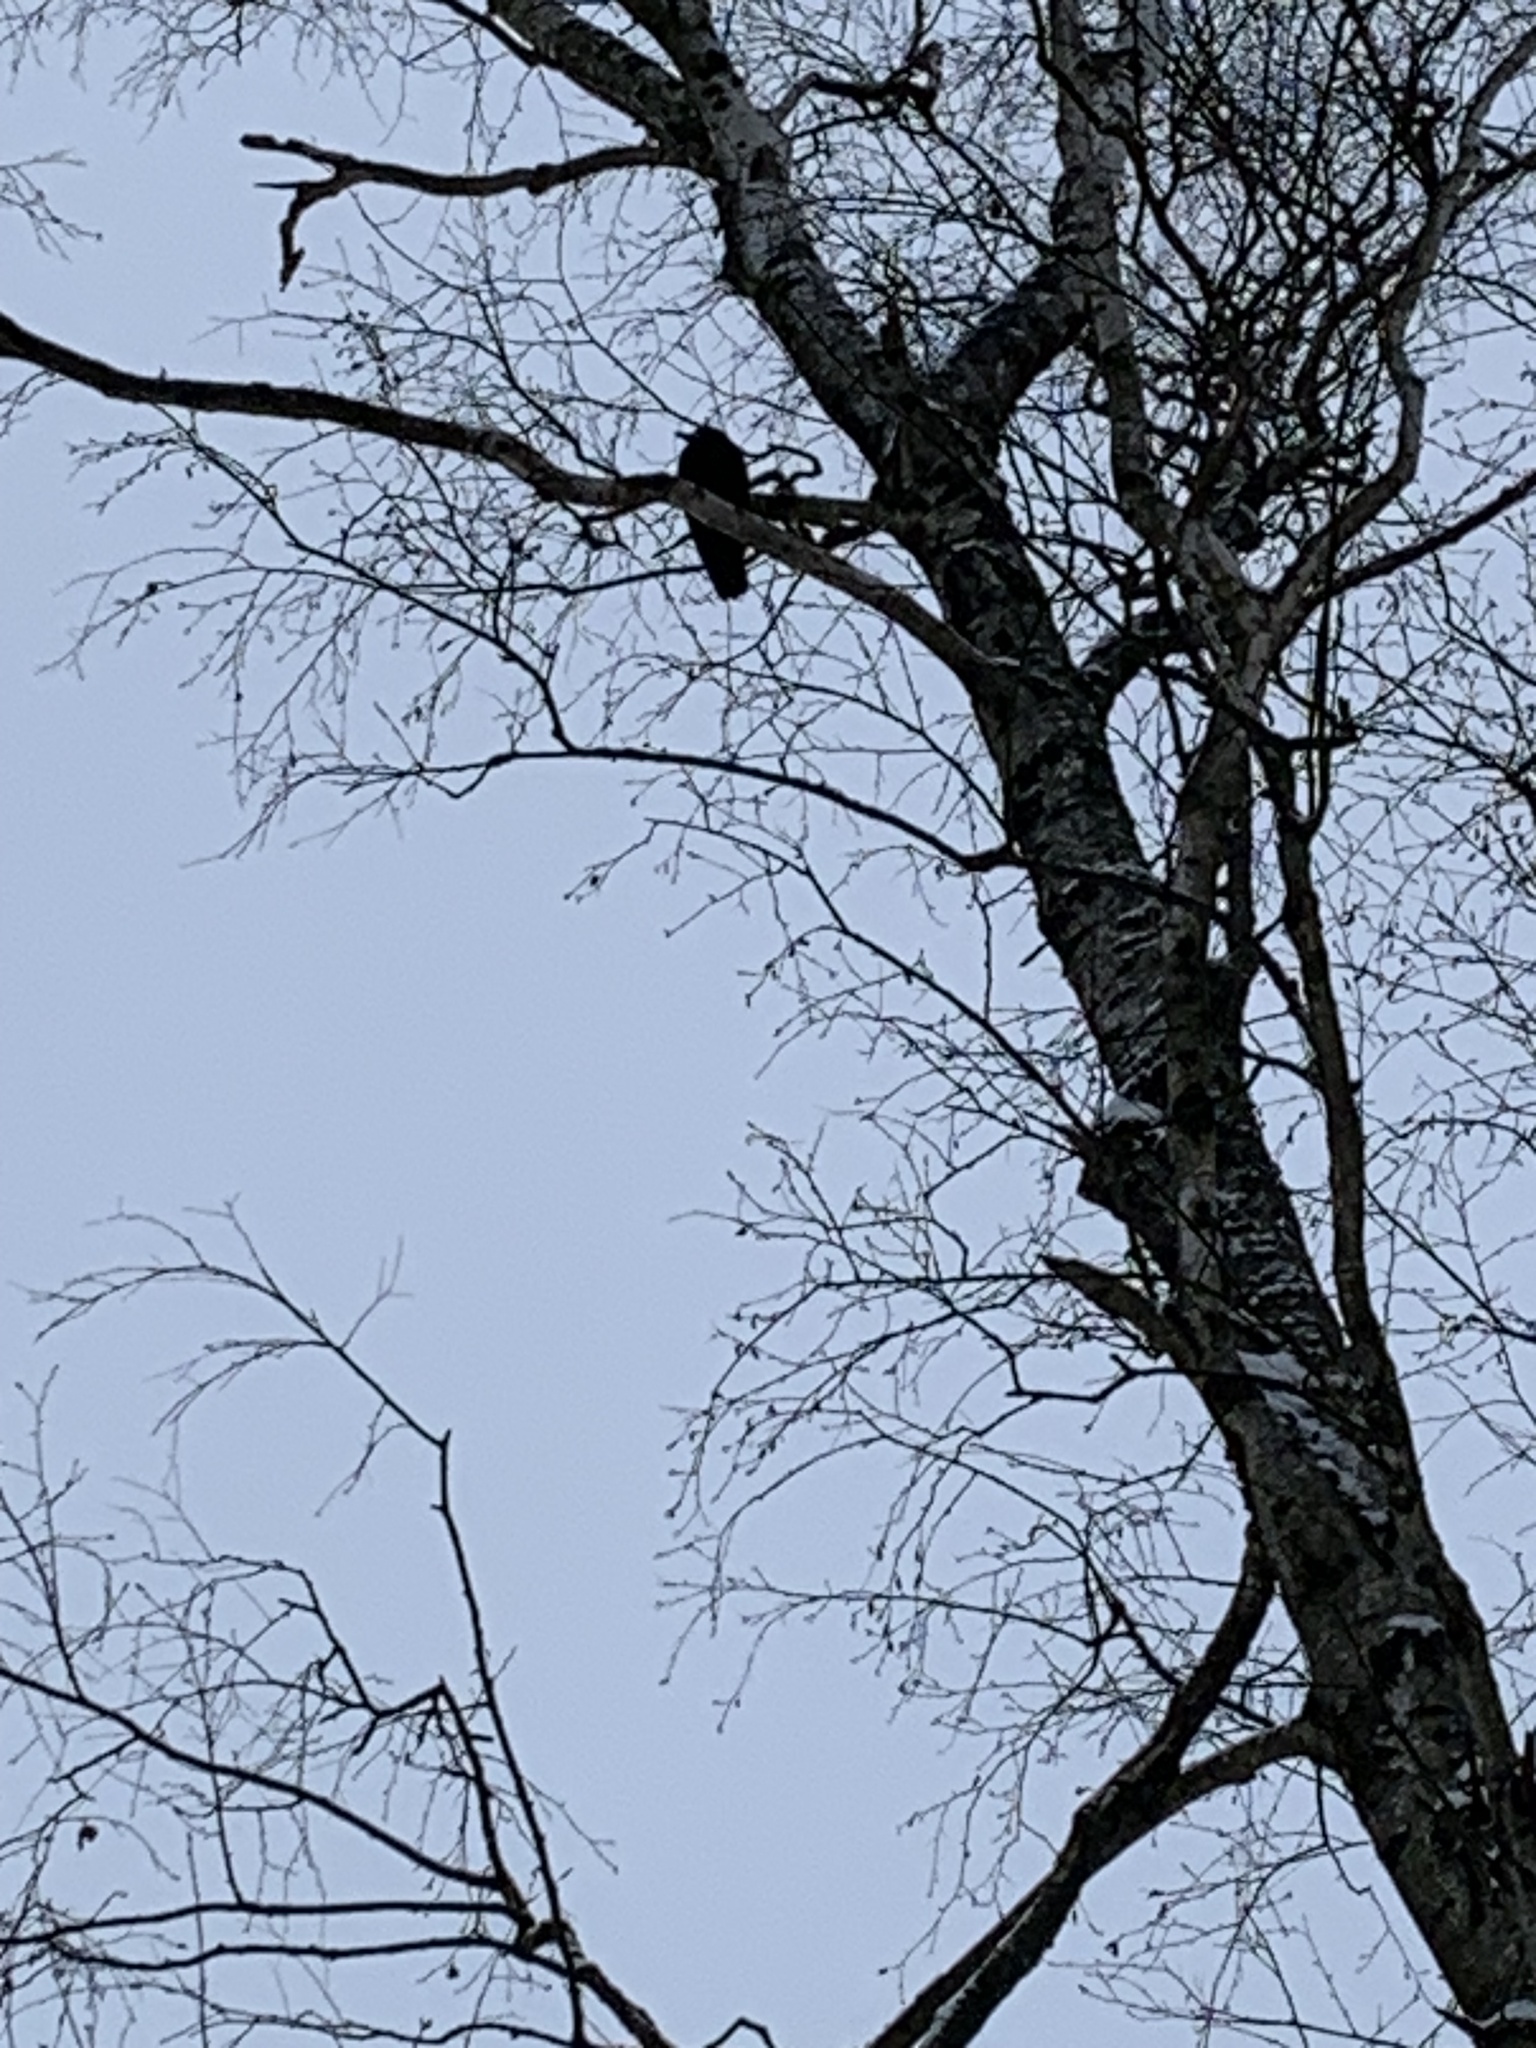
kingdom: Animalia
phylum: Chordata
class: Aves
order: Passeriformes
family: Corvidae
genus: Corvus
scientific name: Corvus frugilegus
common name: Rook
